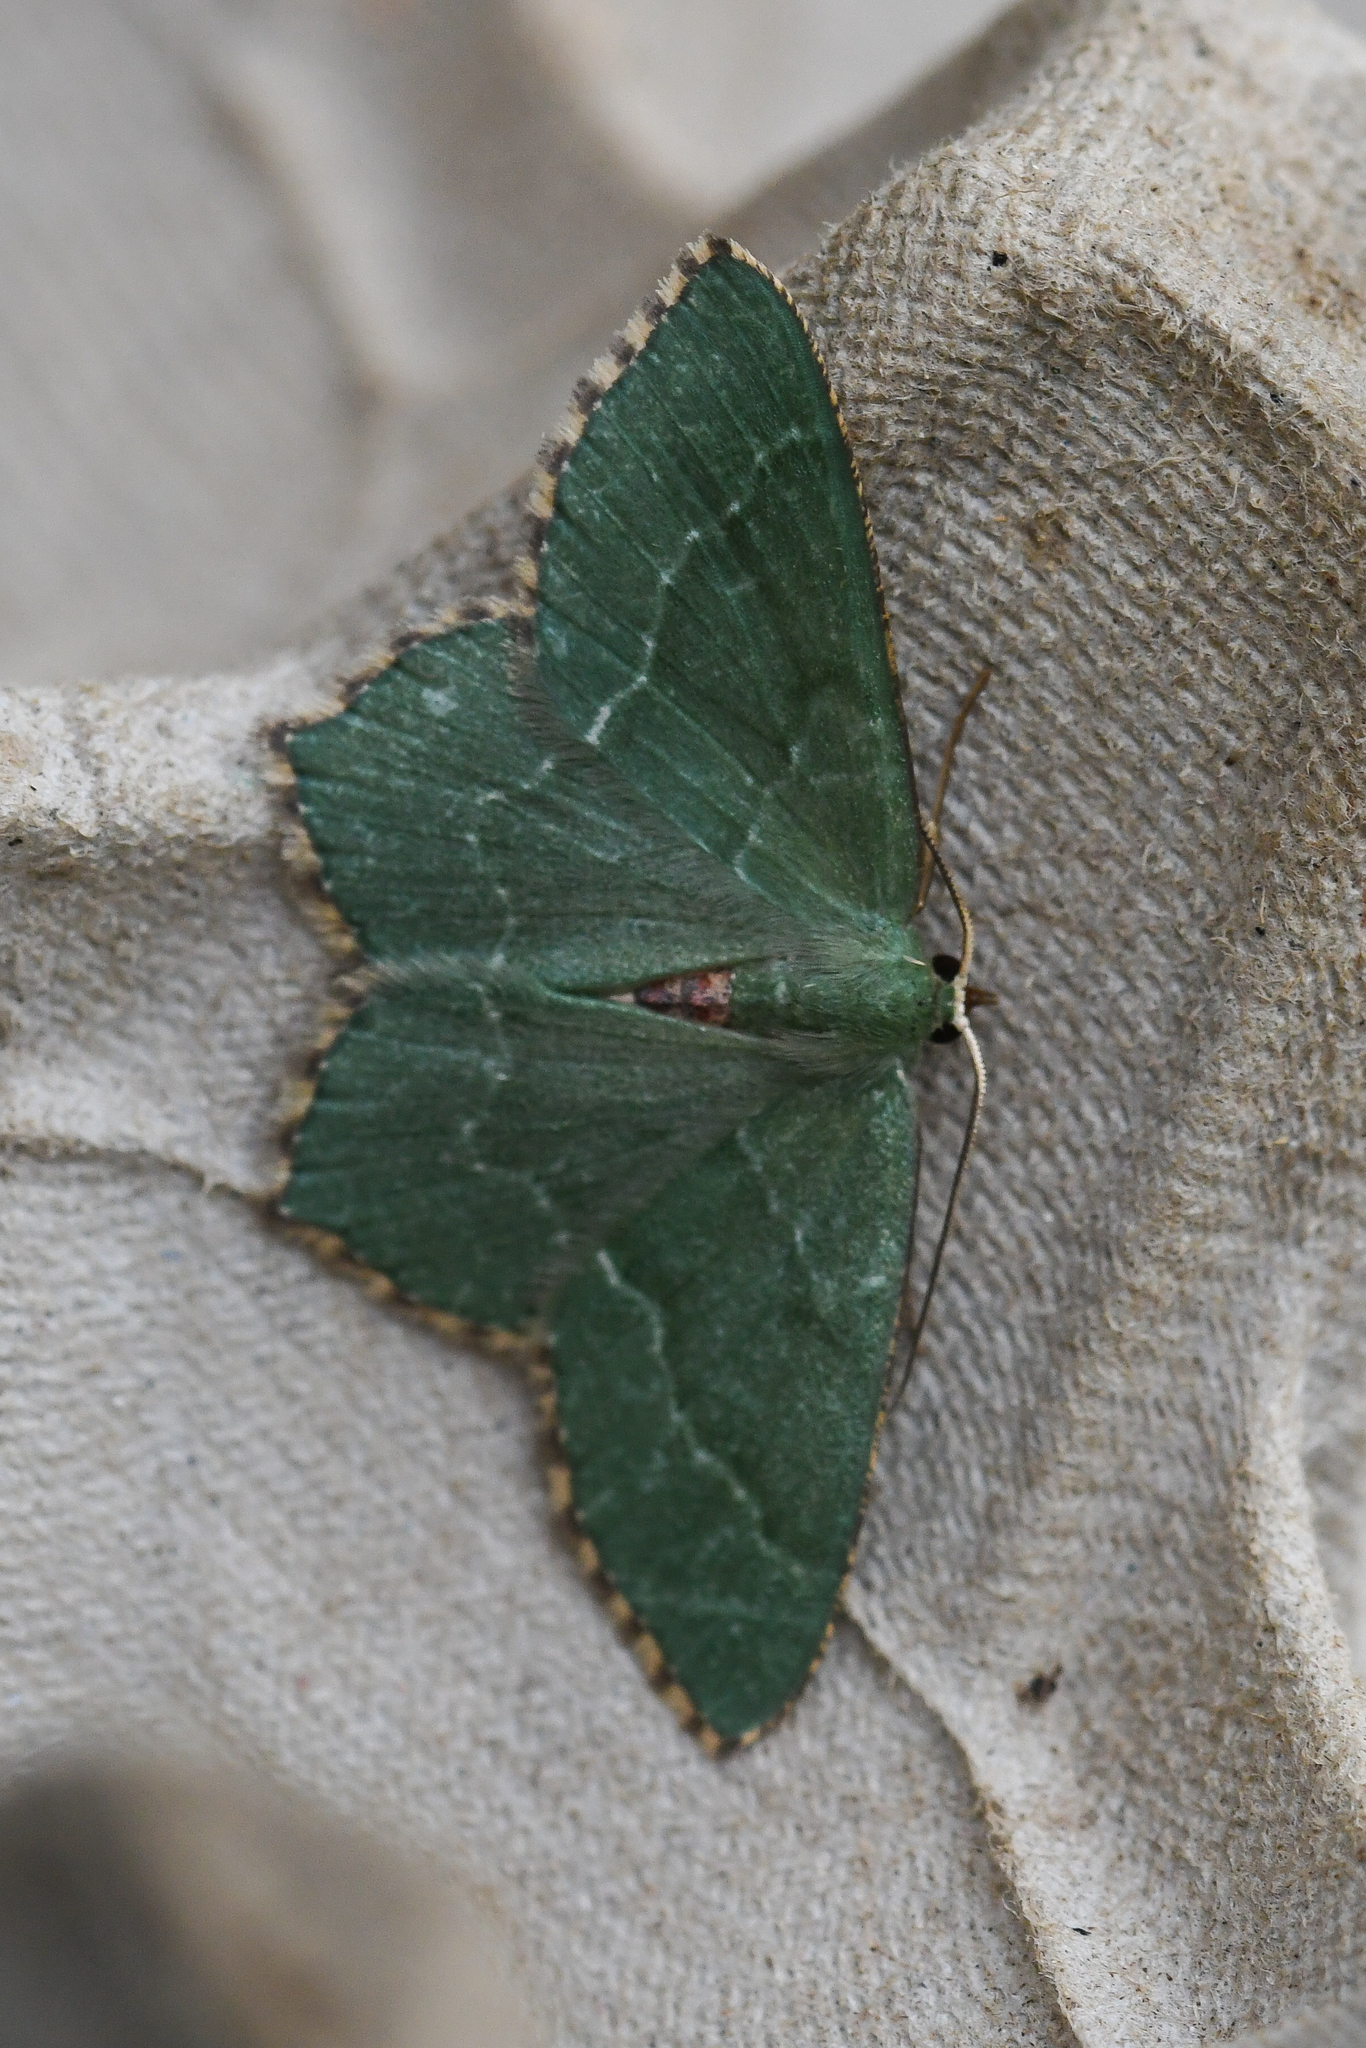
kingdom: Animalia
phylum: Arthropoda
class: Insecta
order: Lepidoptera
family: Geometridae
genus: Hemithea
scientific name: Hemithea aestivaria
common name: Common emerald
